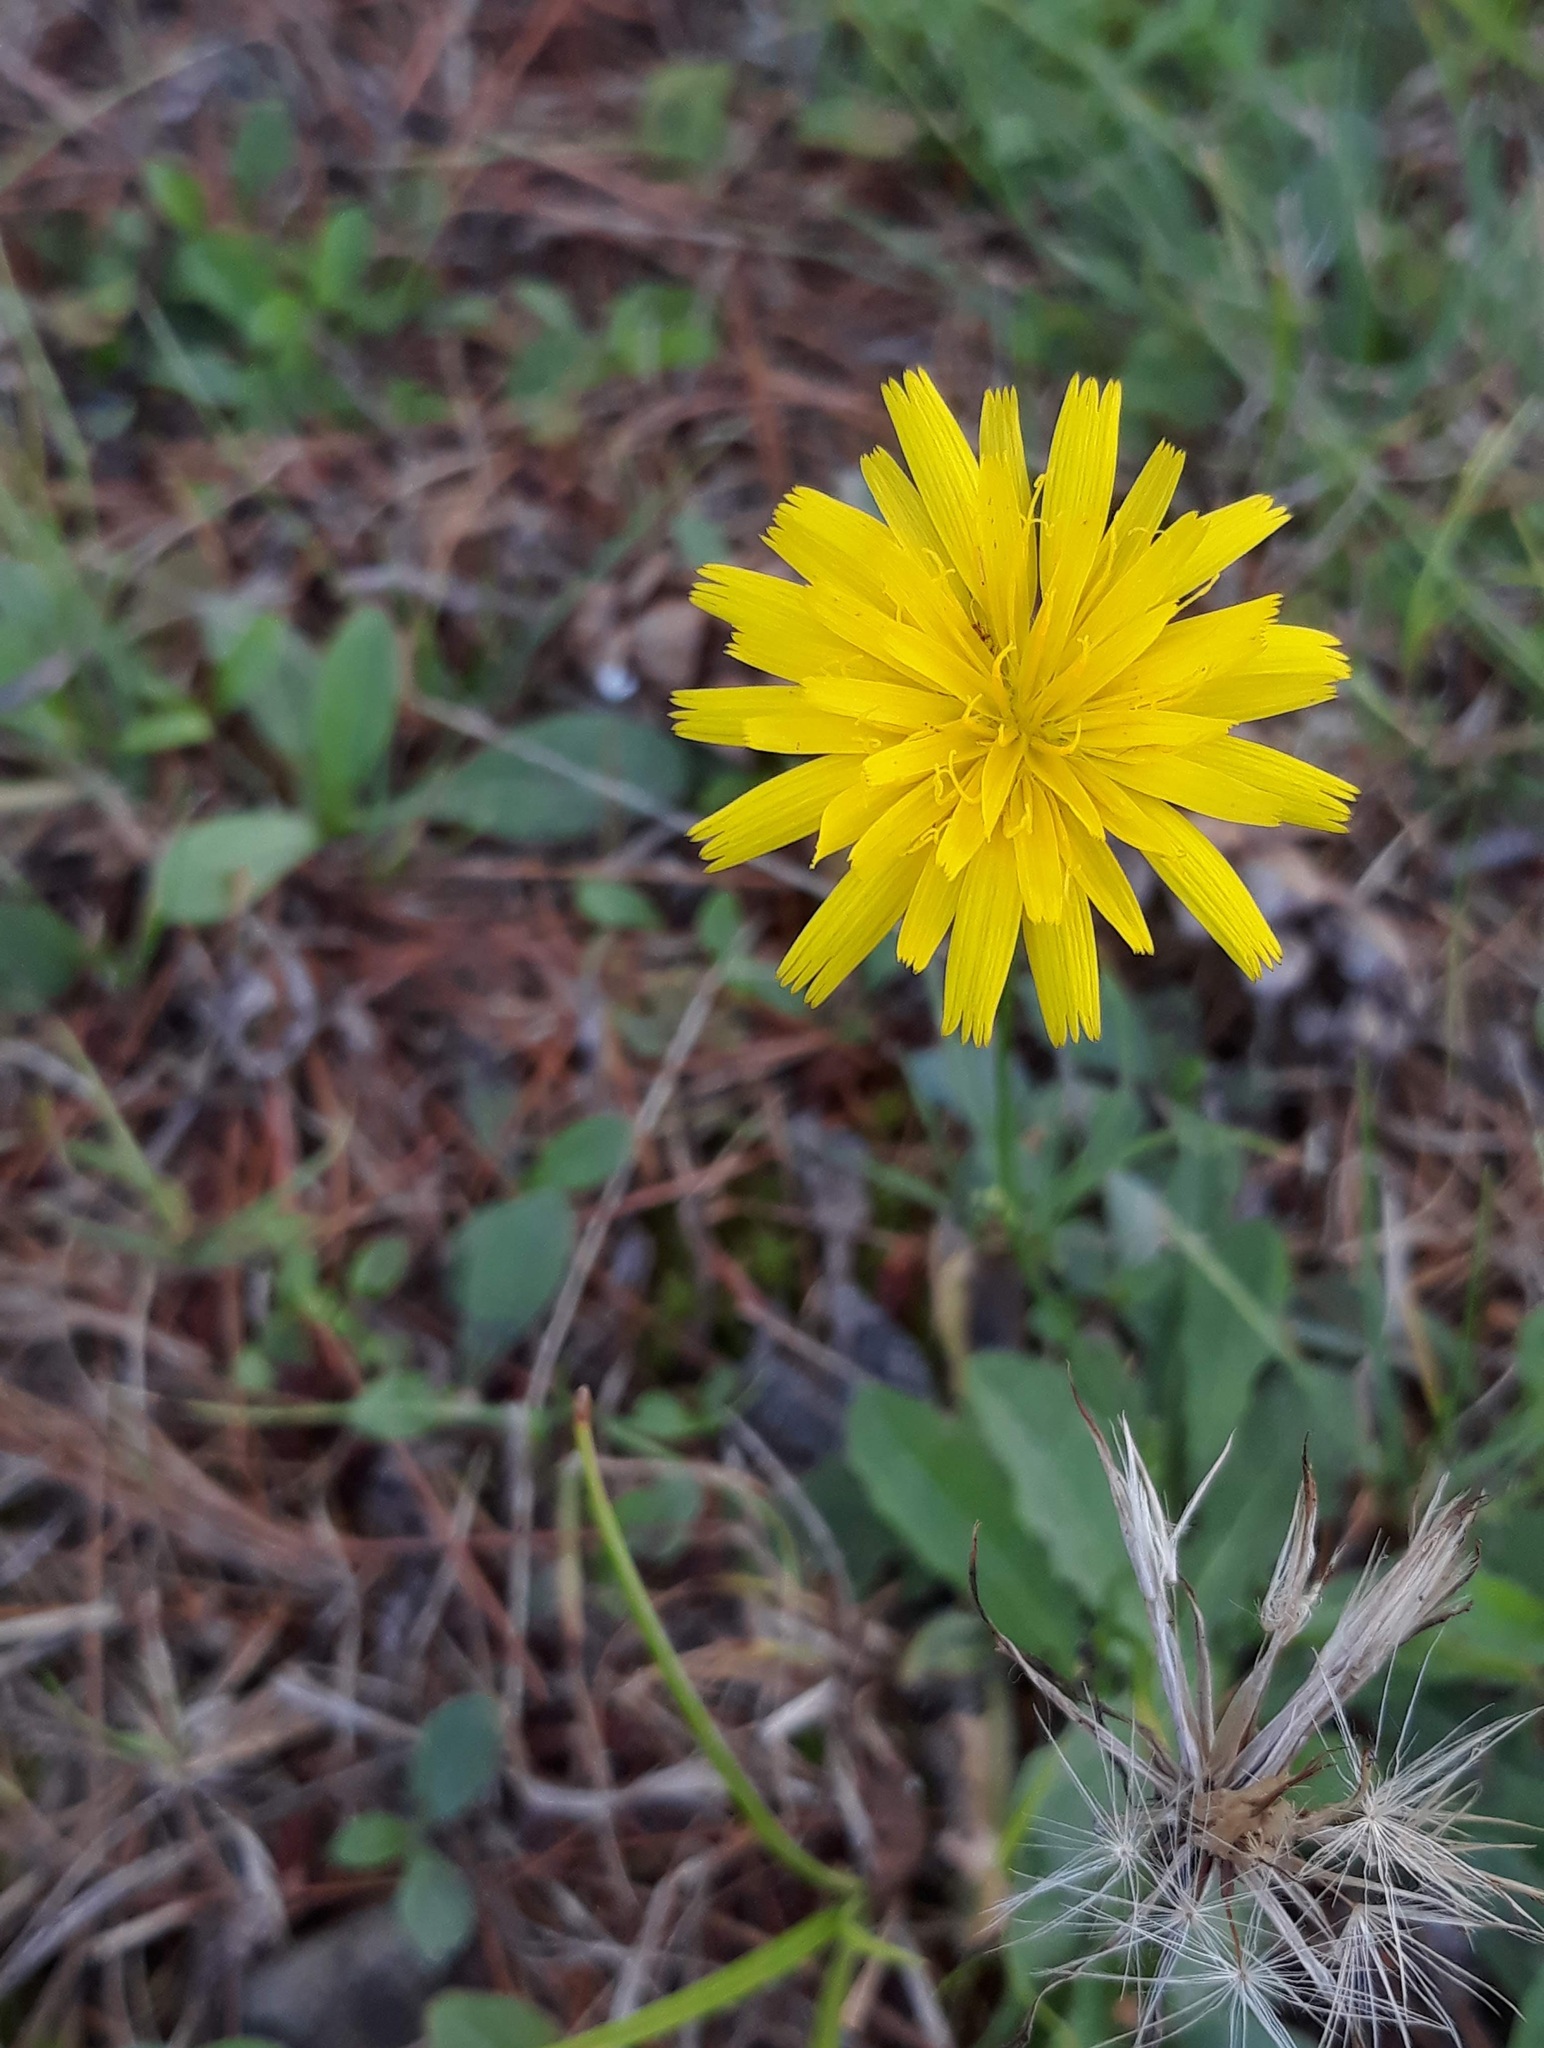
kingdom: Plantae
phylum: Tracheophyta
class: Magnoliopsida
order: Asterales
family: Asteraceae
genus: Hypochaeris
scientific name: Hypochaeris radicata
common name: Flatweed
